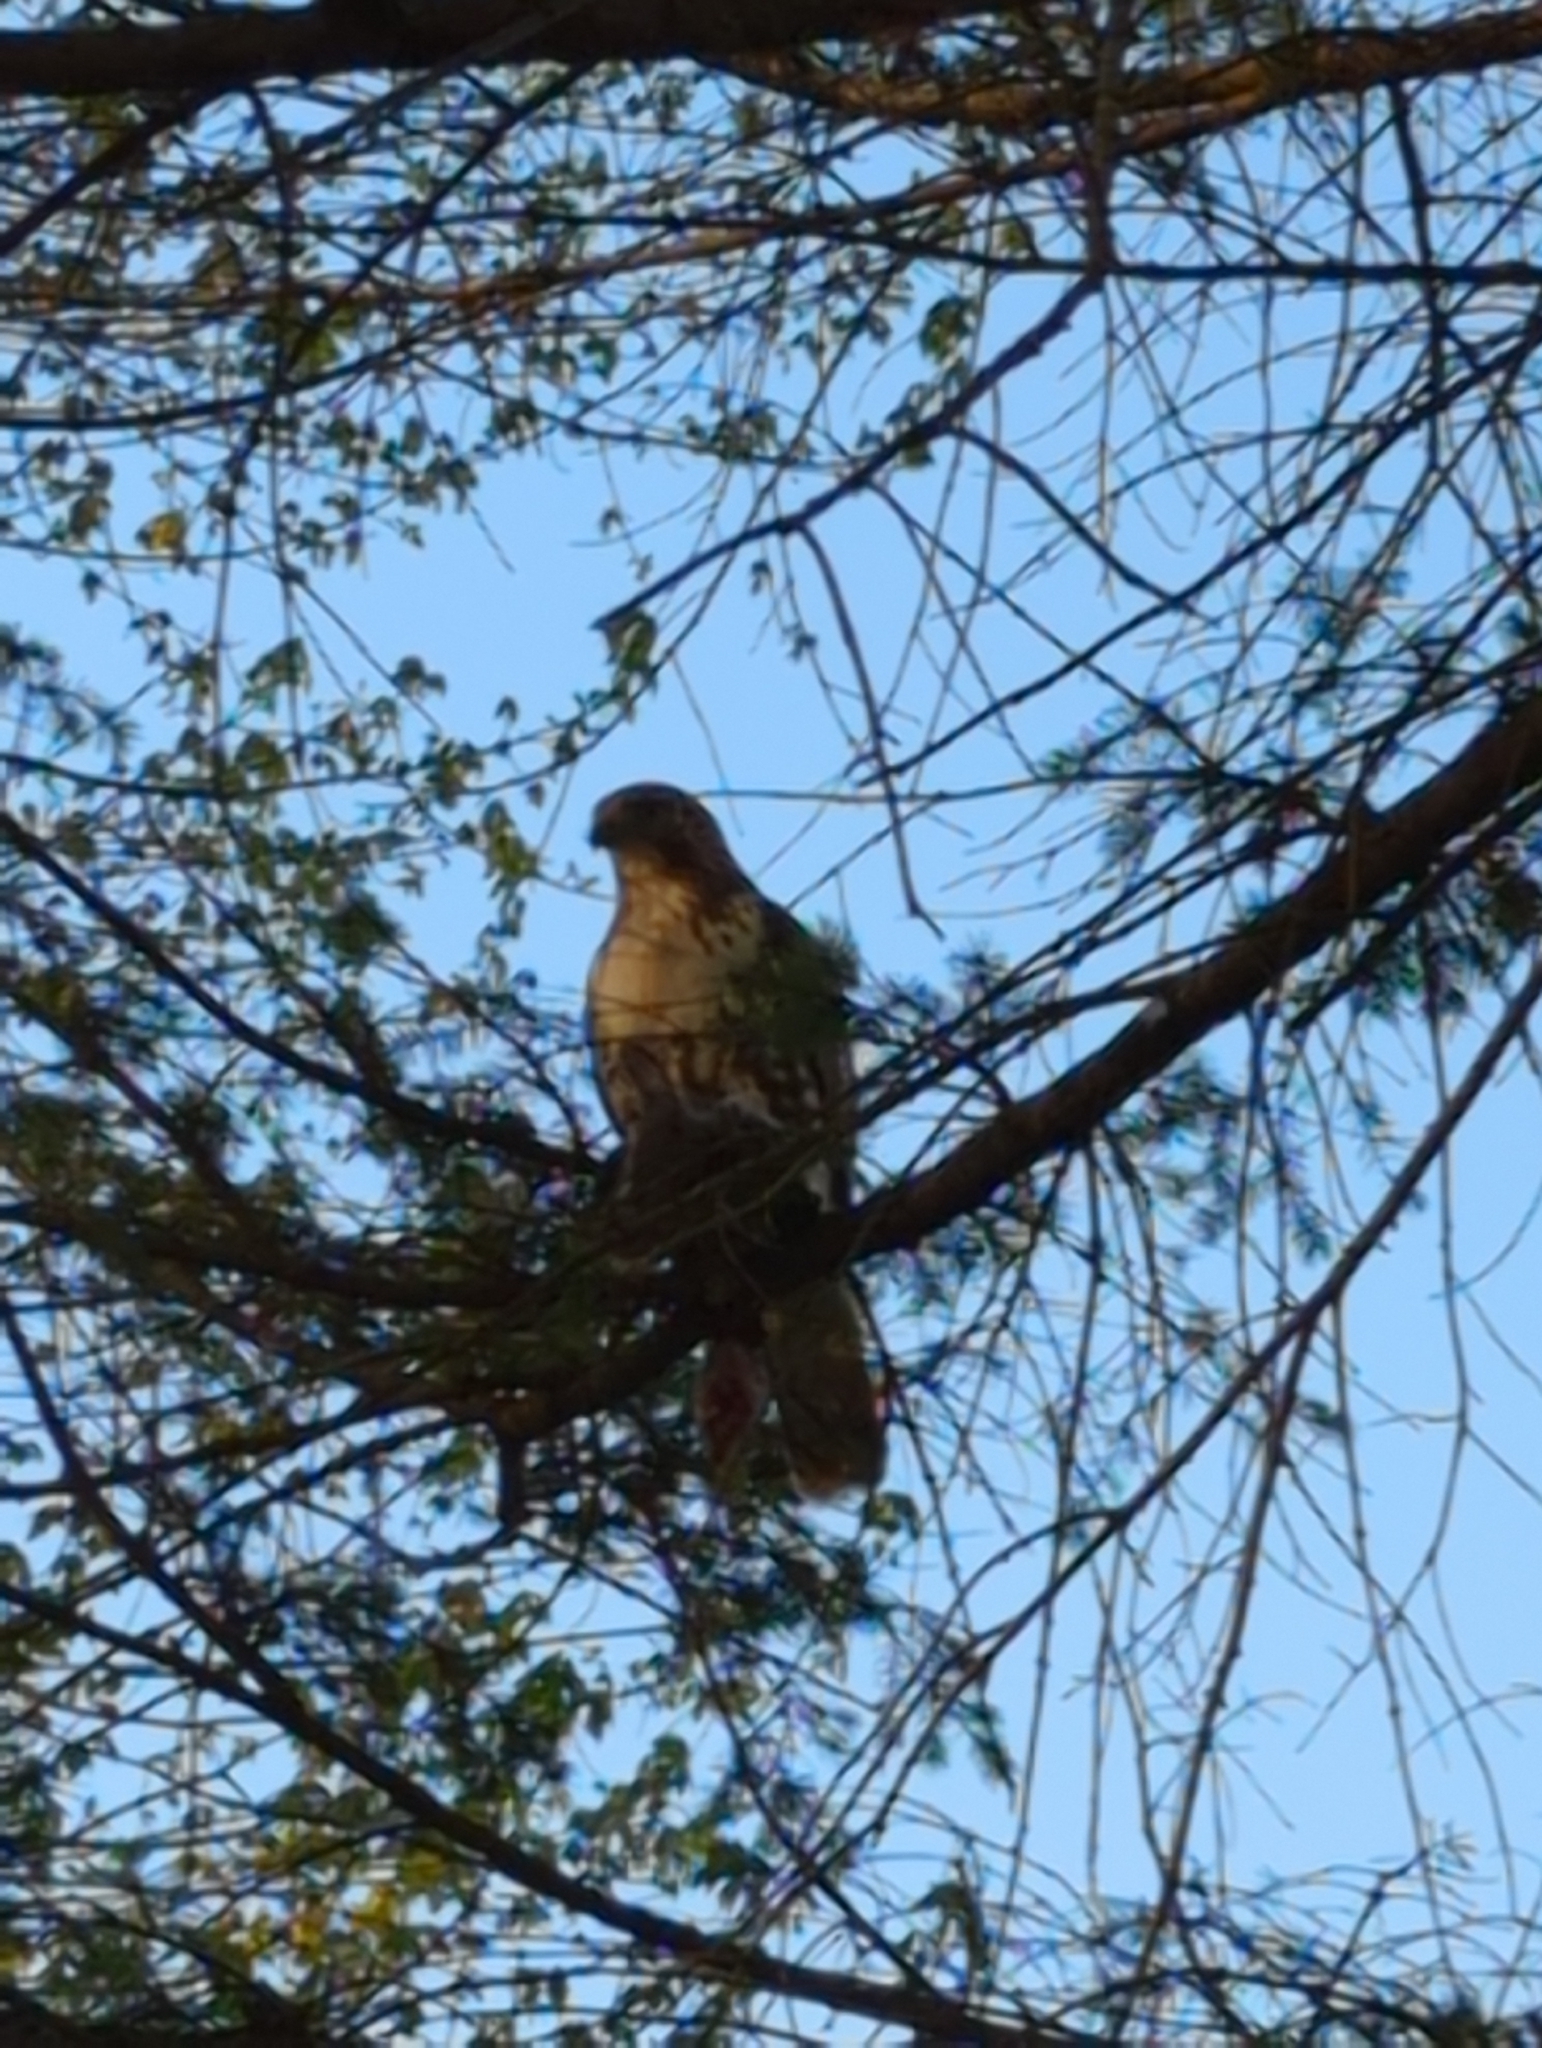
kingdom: Animalia
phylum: Chordata
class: Aves
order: Accipitriformes
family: Accipitridae
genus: Buteo
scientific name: Buteo jamaicensis
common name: Red-tailed hawk
